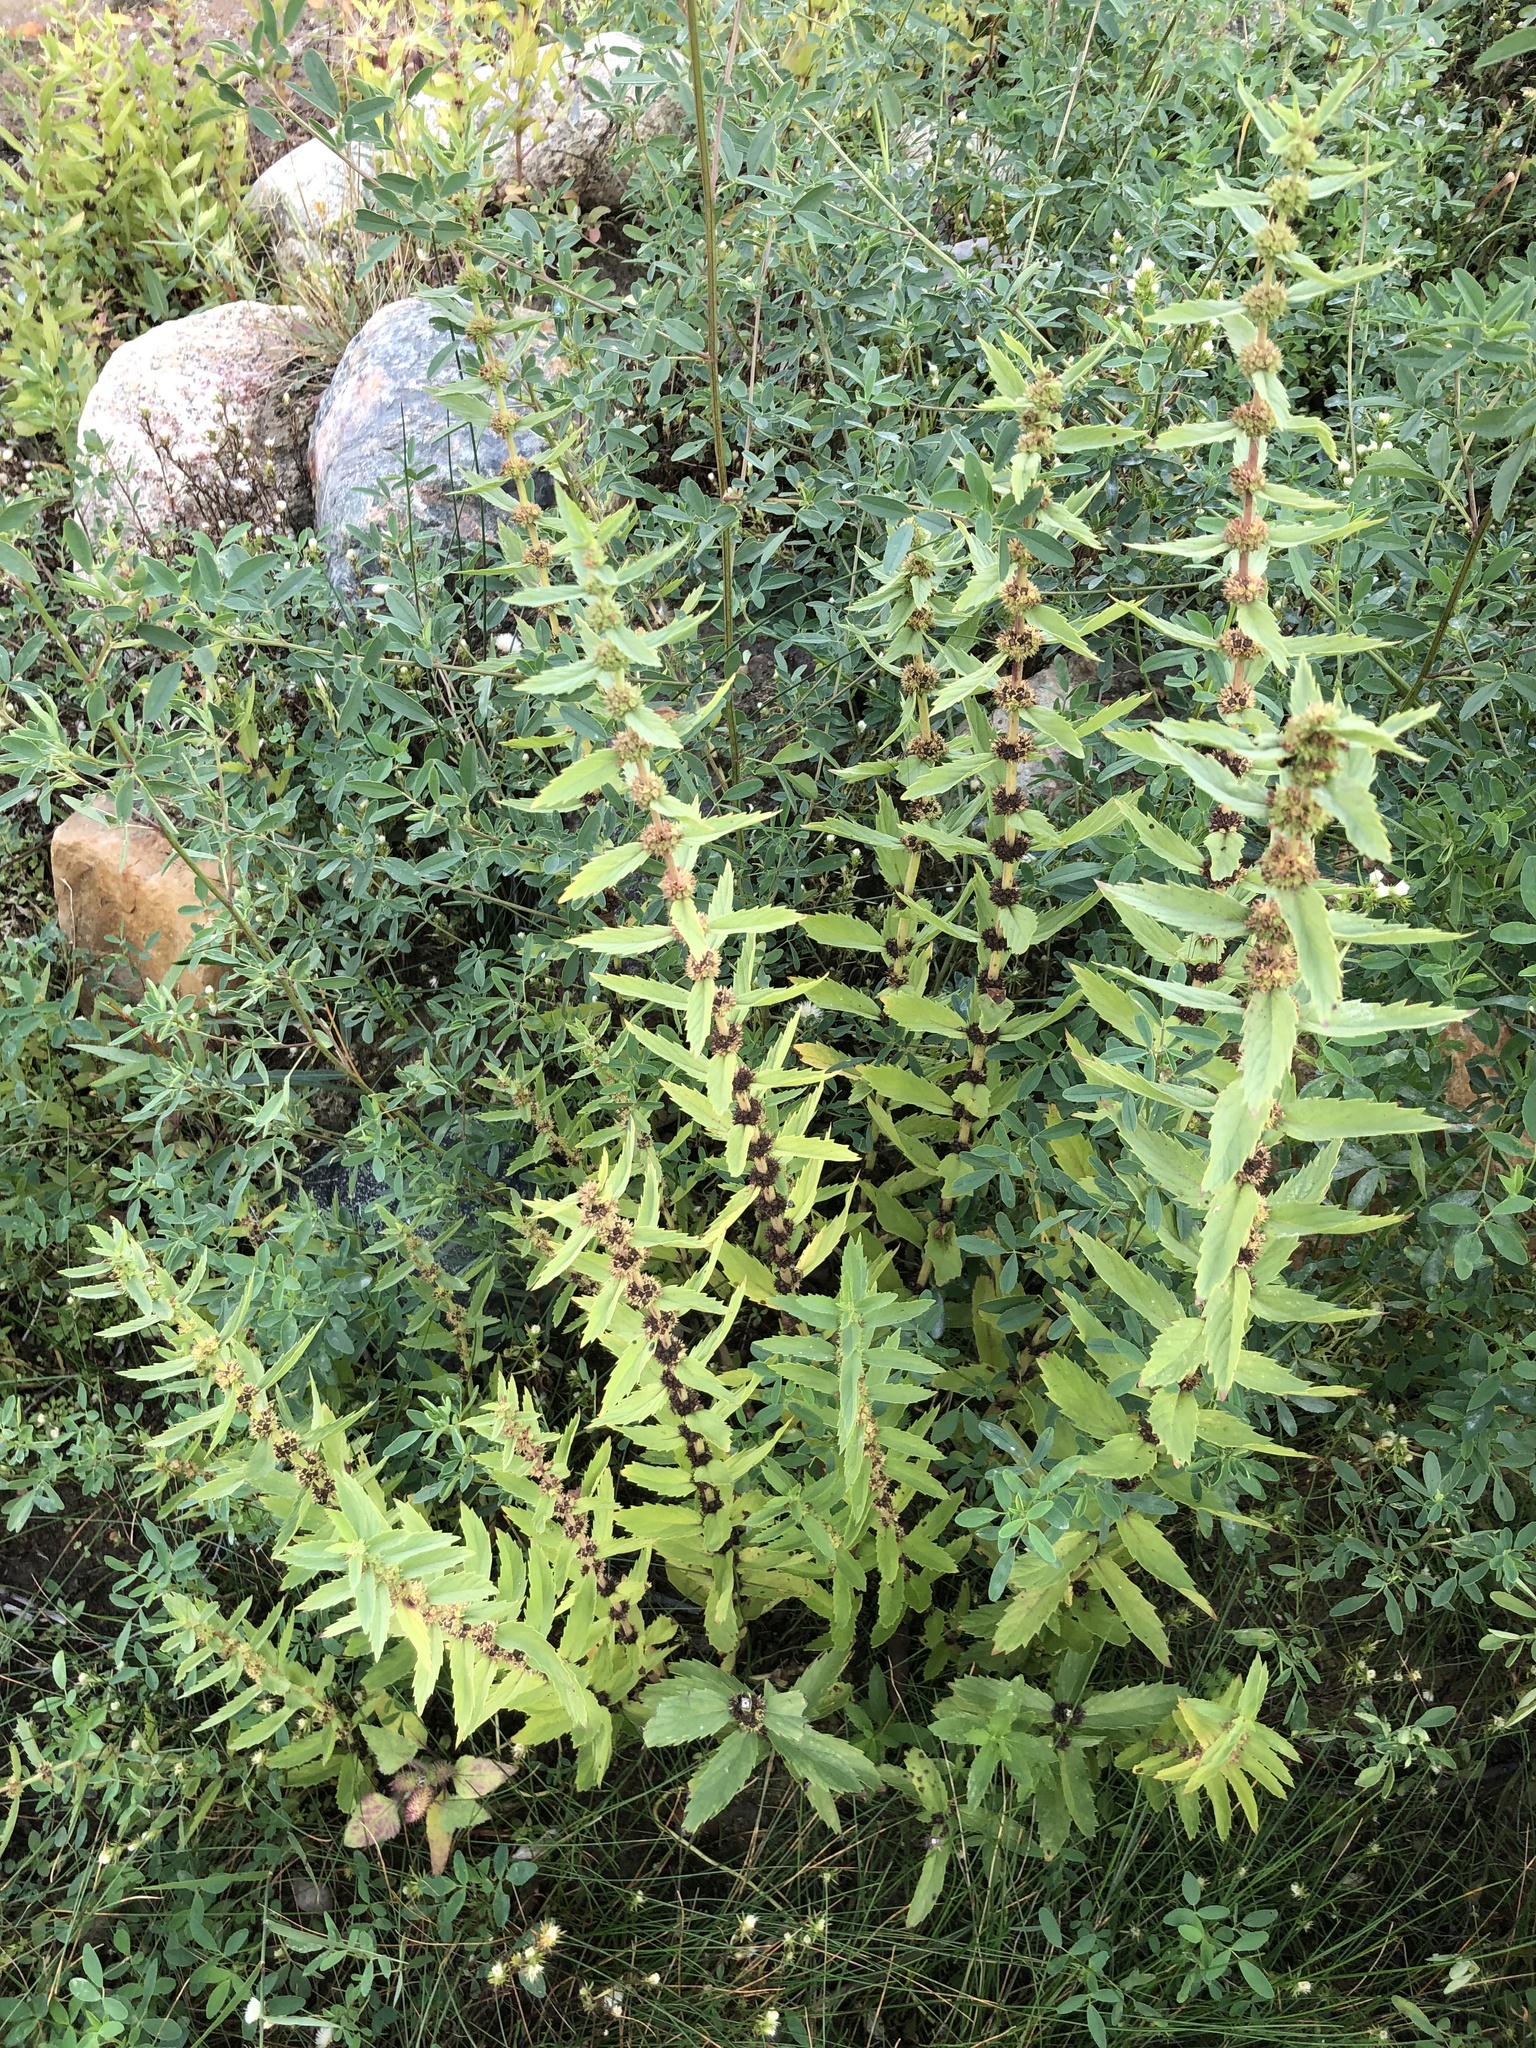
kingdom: Plantae
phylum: Tracheophyta
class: Magnoliopsida
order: Lamiales
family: Lamiaceae
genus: Lycopus
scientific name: Lycopus asper
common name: Rough water-horehound
